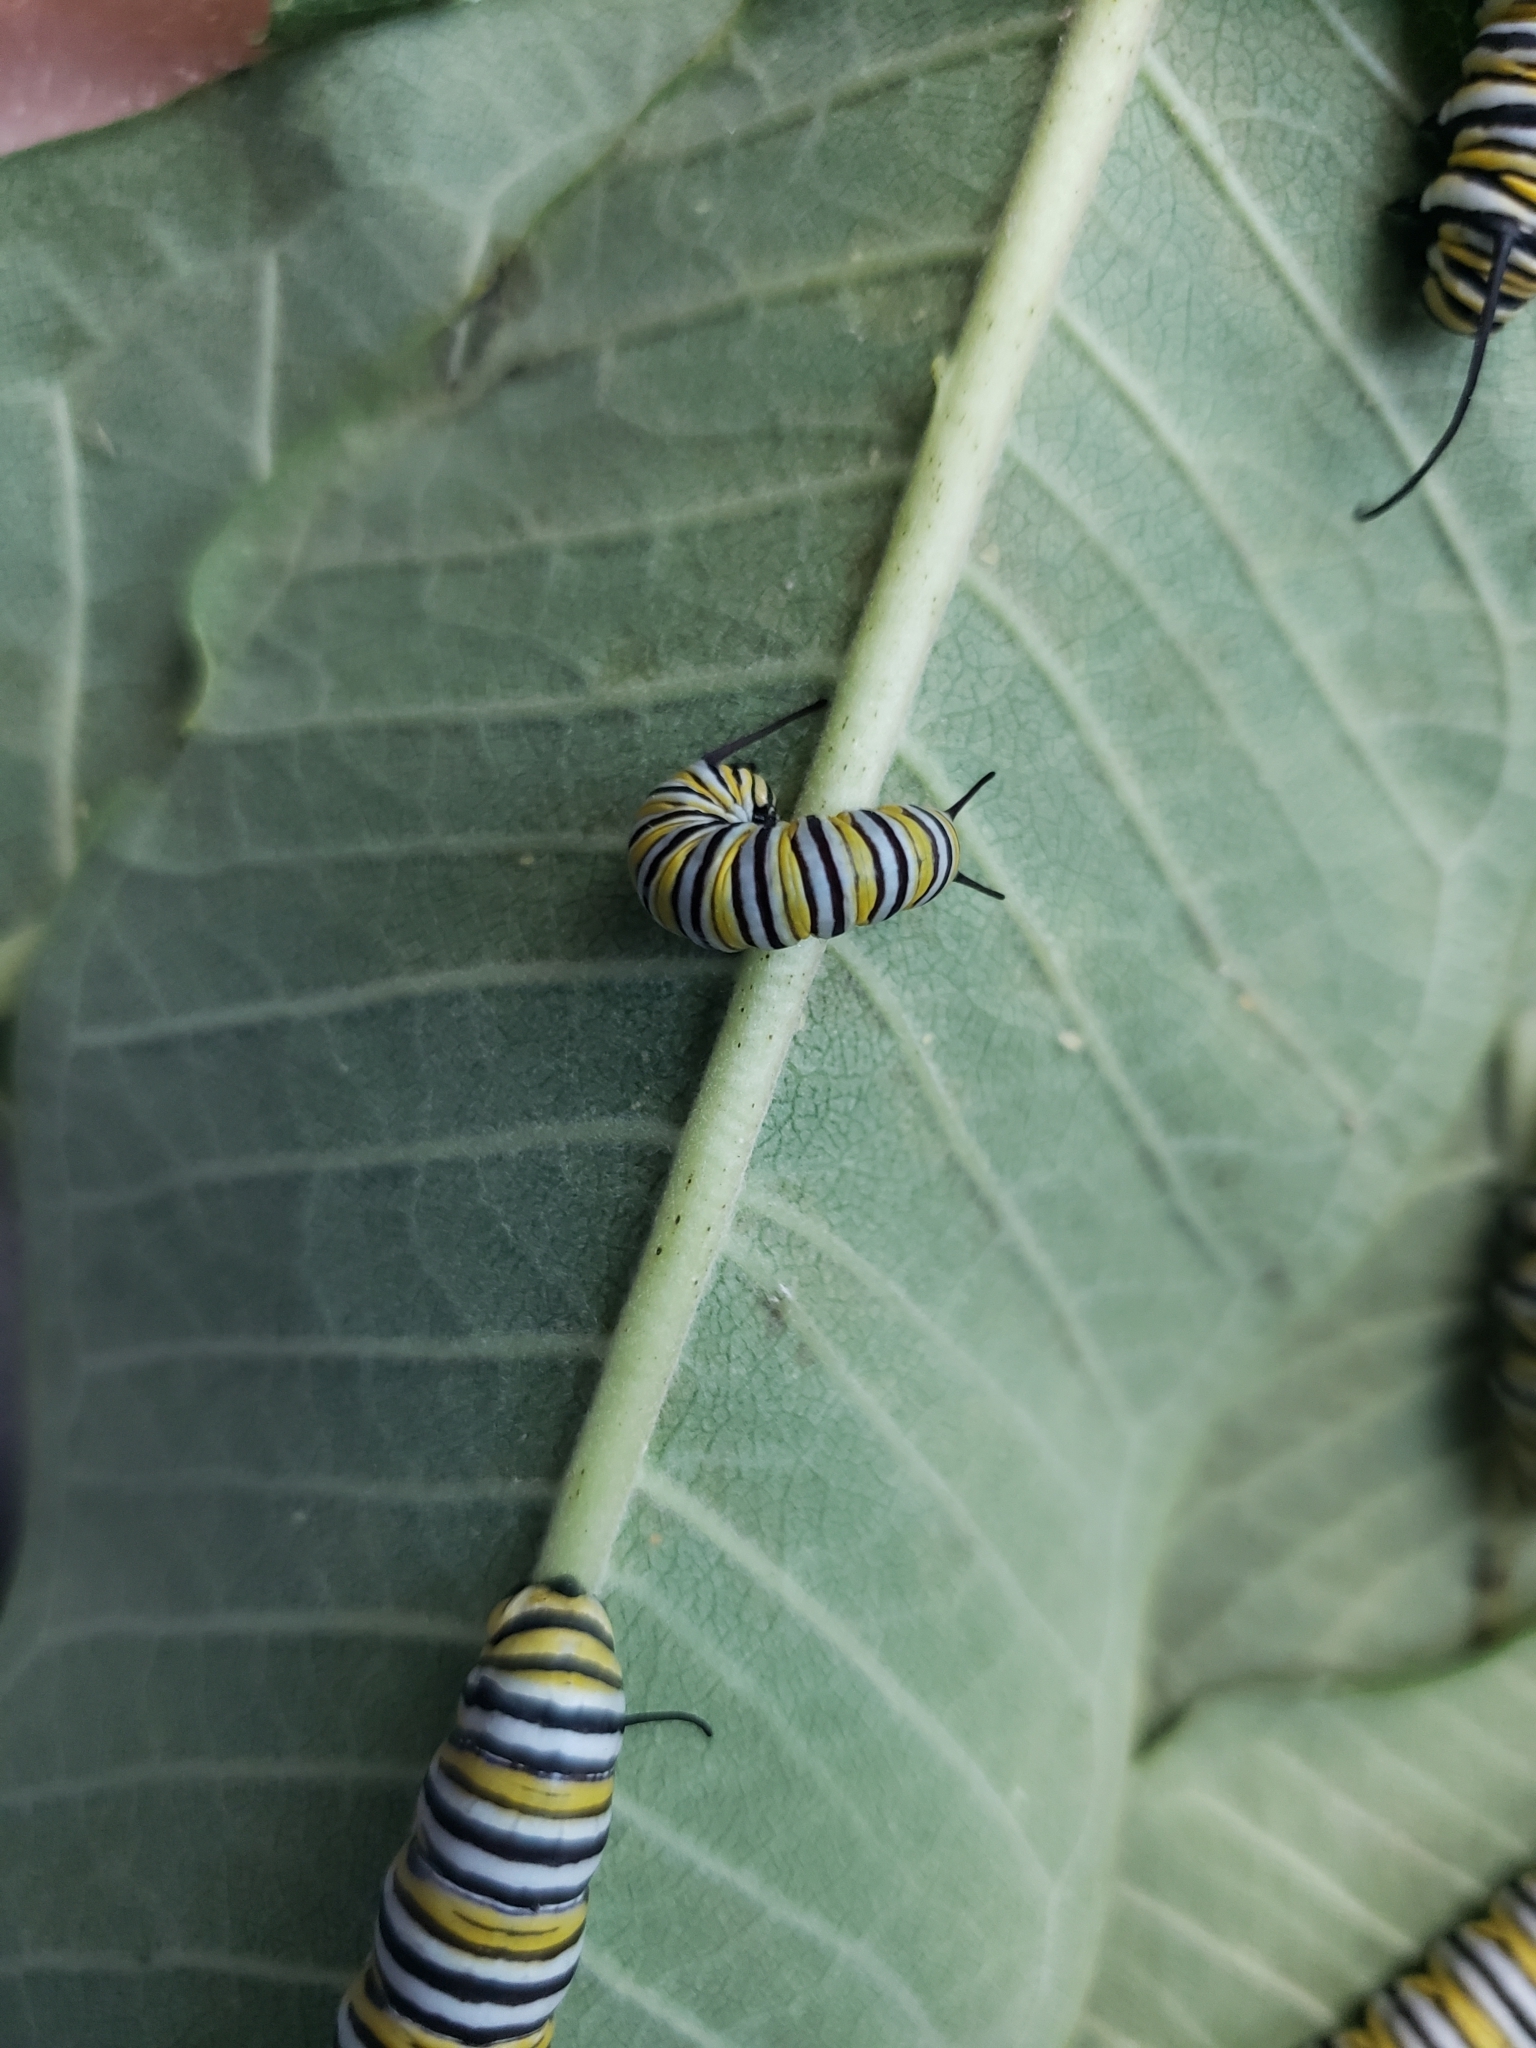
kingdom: Animalia
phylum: Arthropoda
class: Insecta
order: Lepidoptera
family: Nymphalidae
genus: Danaus
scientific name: Danaus plexippus
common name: Monarch
